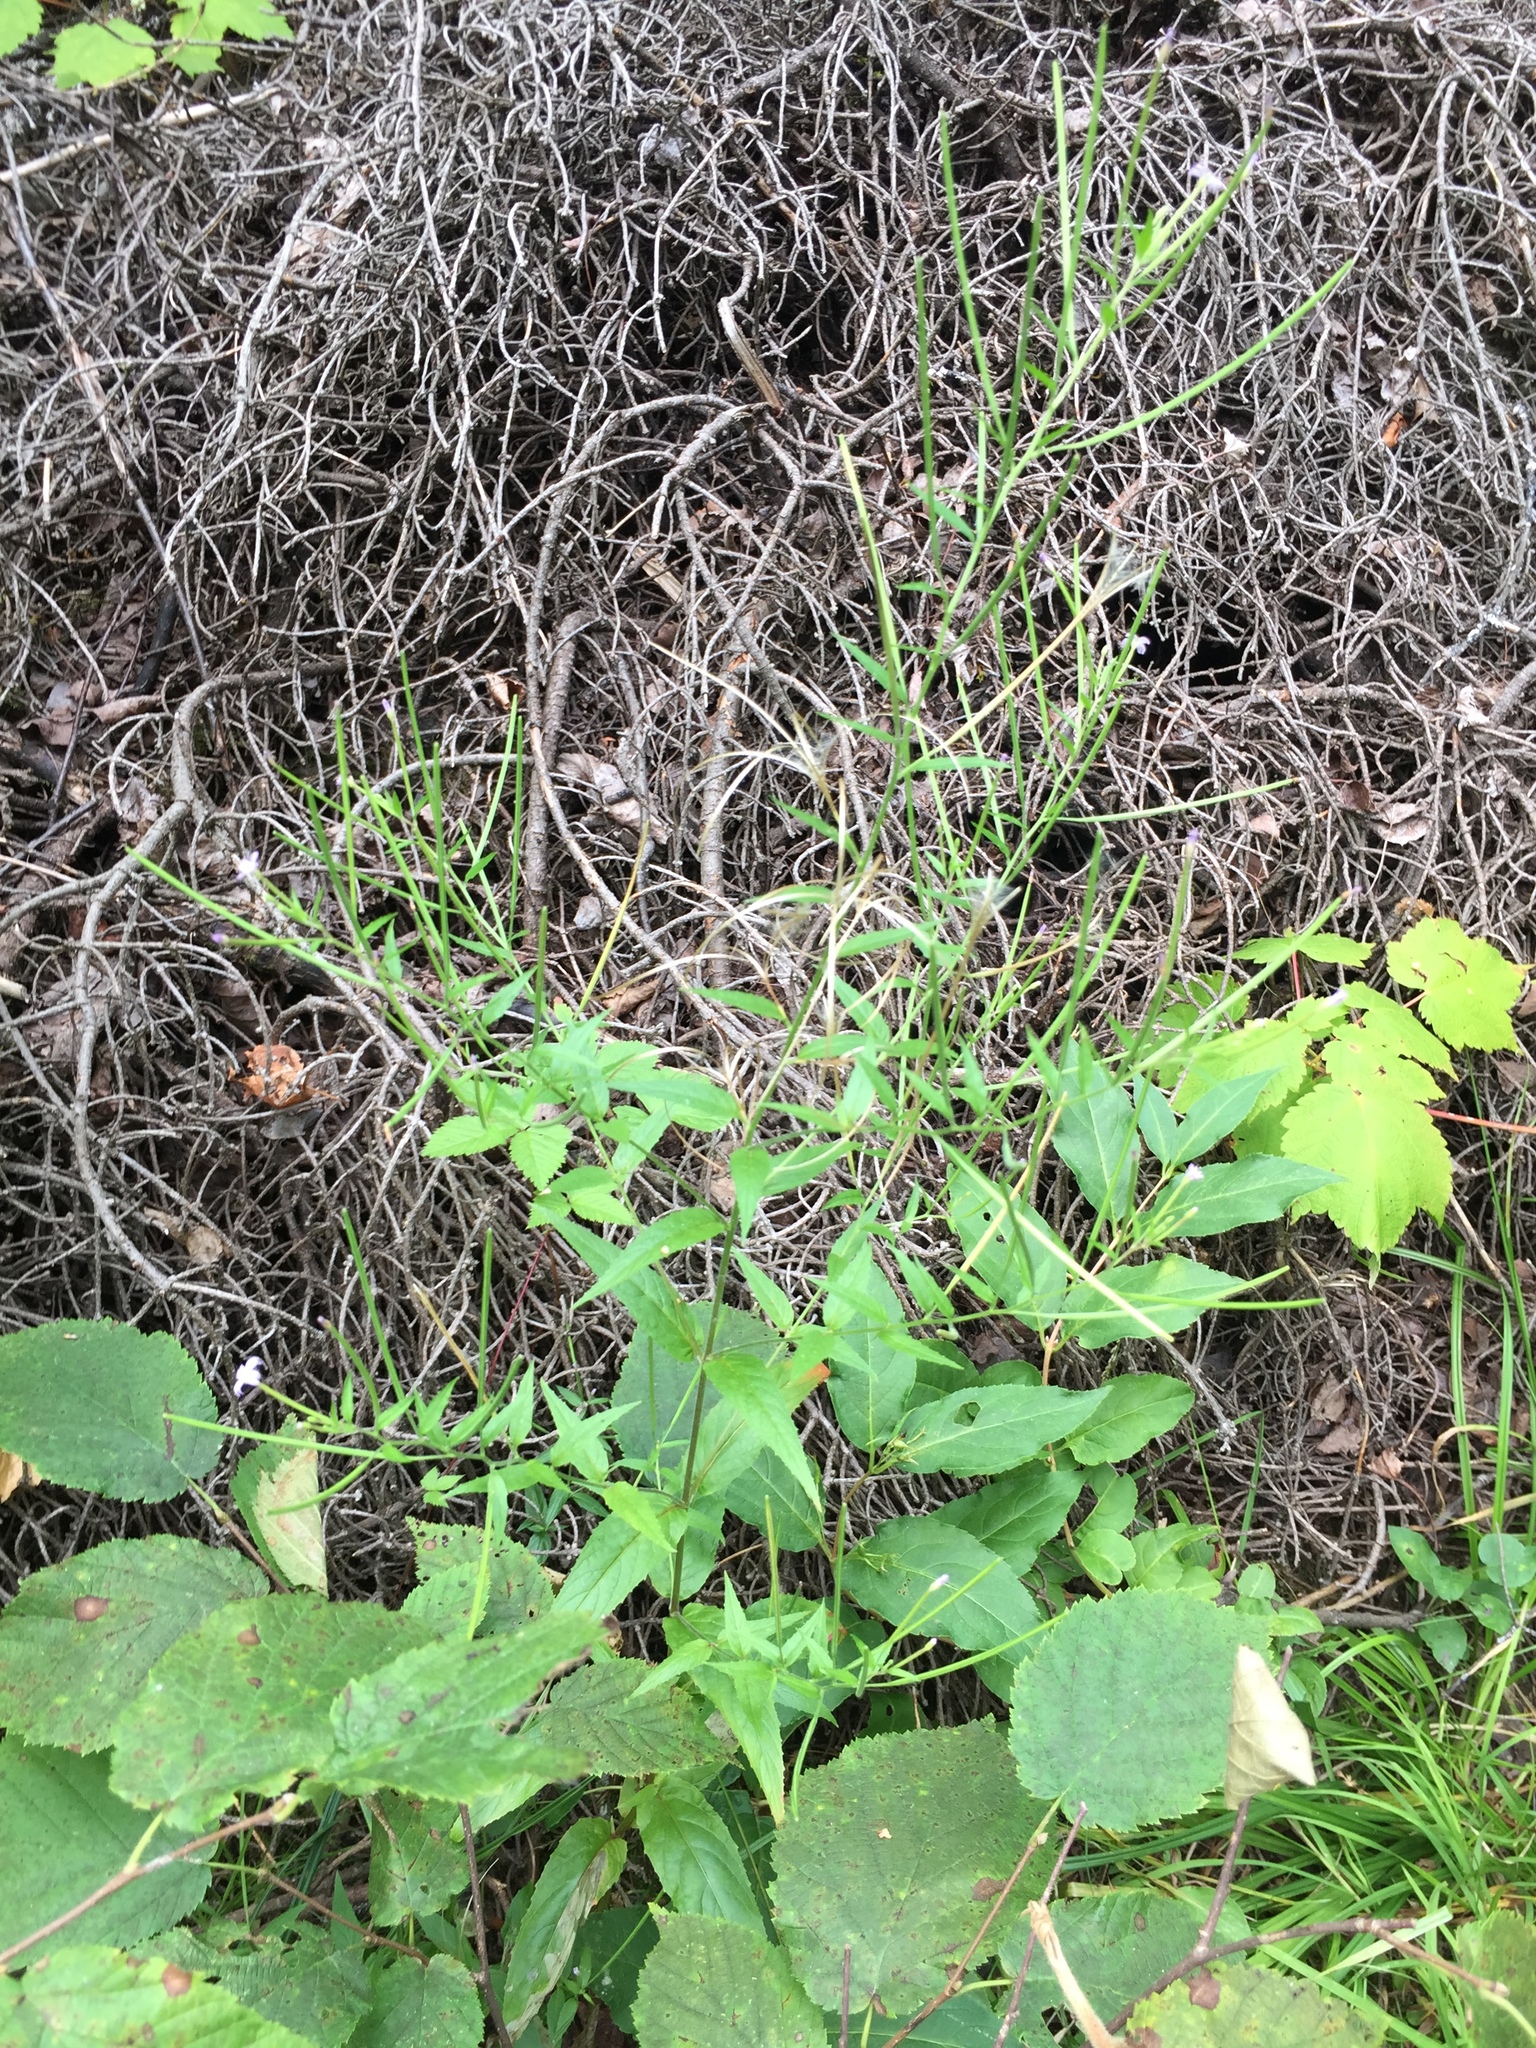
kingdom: Plantae
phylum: Tracheophyta
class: Magnoliopsida
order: Myrtales
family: Onagraceae
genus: Epilobium
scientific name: Epilobium ciliatum
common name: American willowherb
